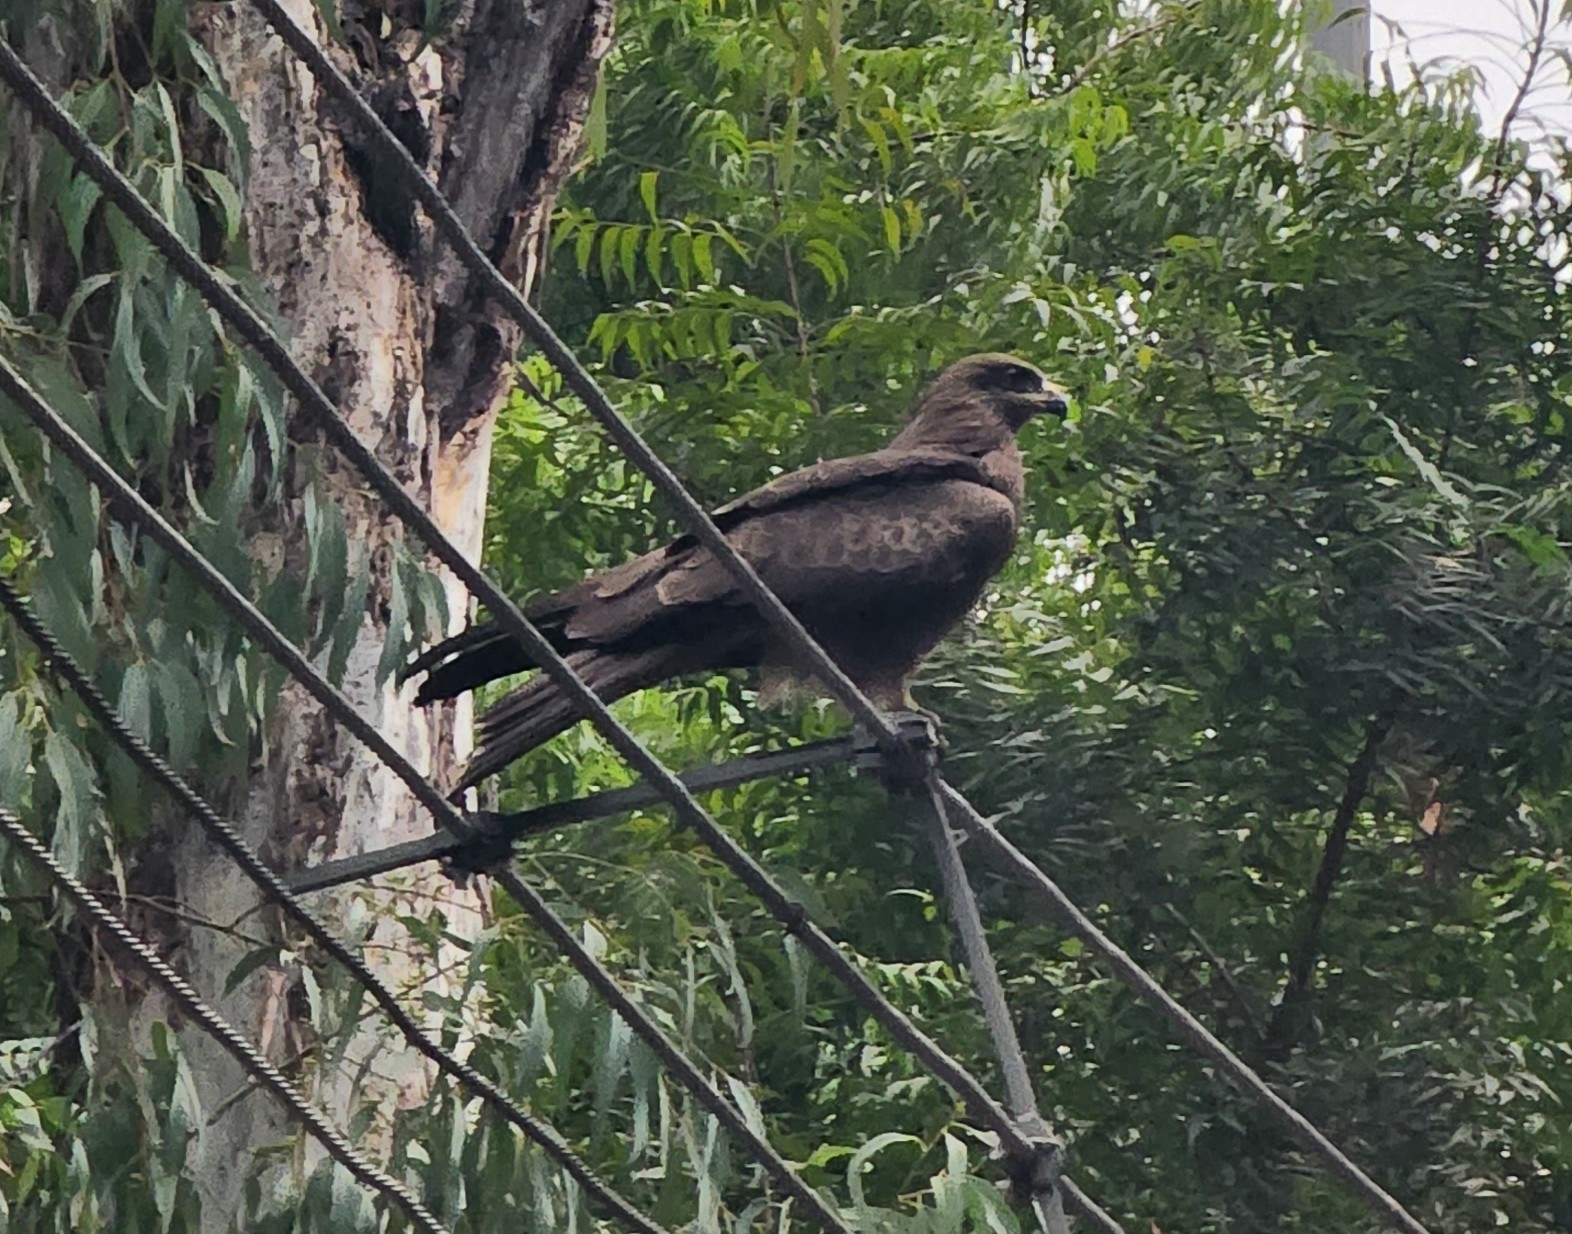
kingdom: Animalia
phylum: Chordata
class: Aves
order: Accipitriformes
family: Accipitridae
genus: Milvus
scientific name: Milvus migrans
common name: Black kite
